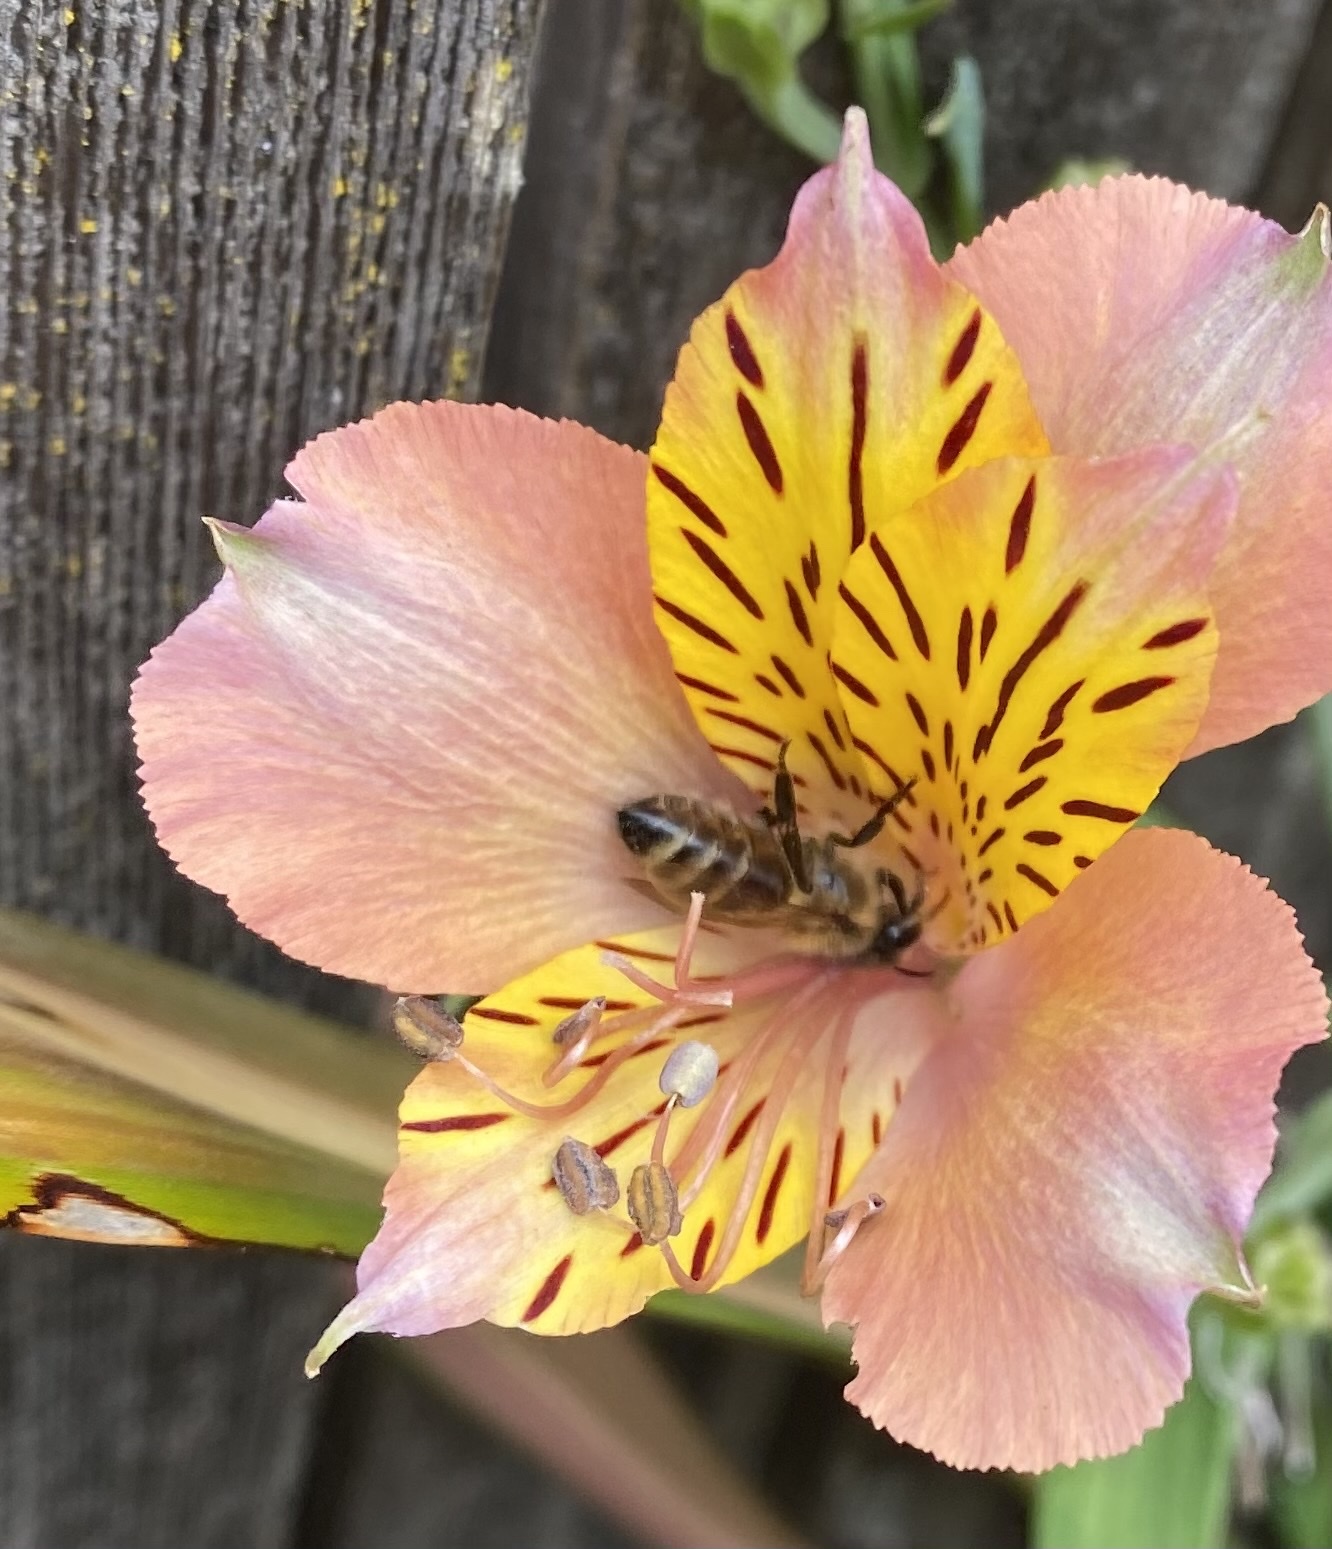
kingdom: Animalia
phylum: Arthropoda
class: Insecta
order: Hymenoptera
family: Apidae
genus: Apis
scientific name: Apis mellifera
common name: Honey bee
